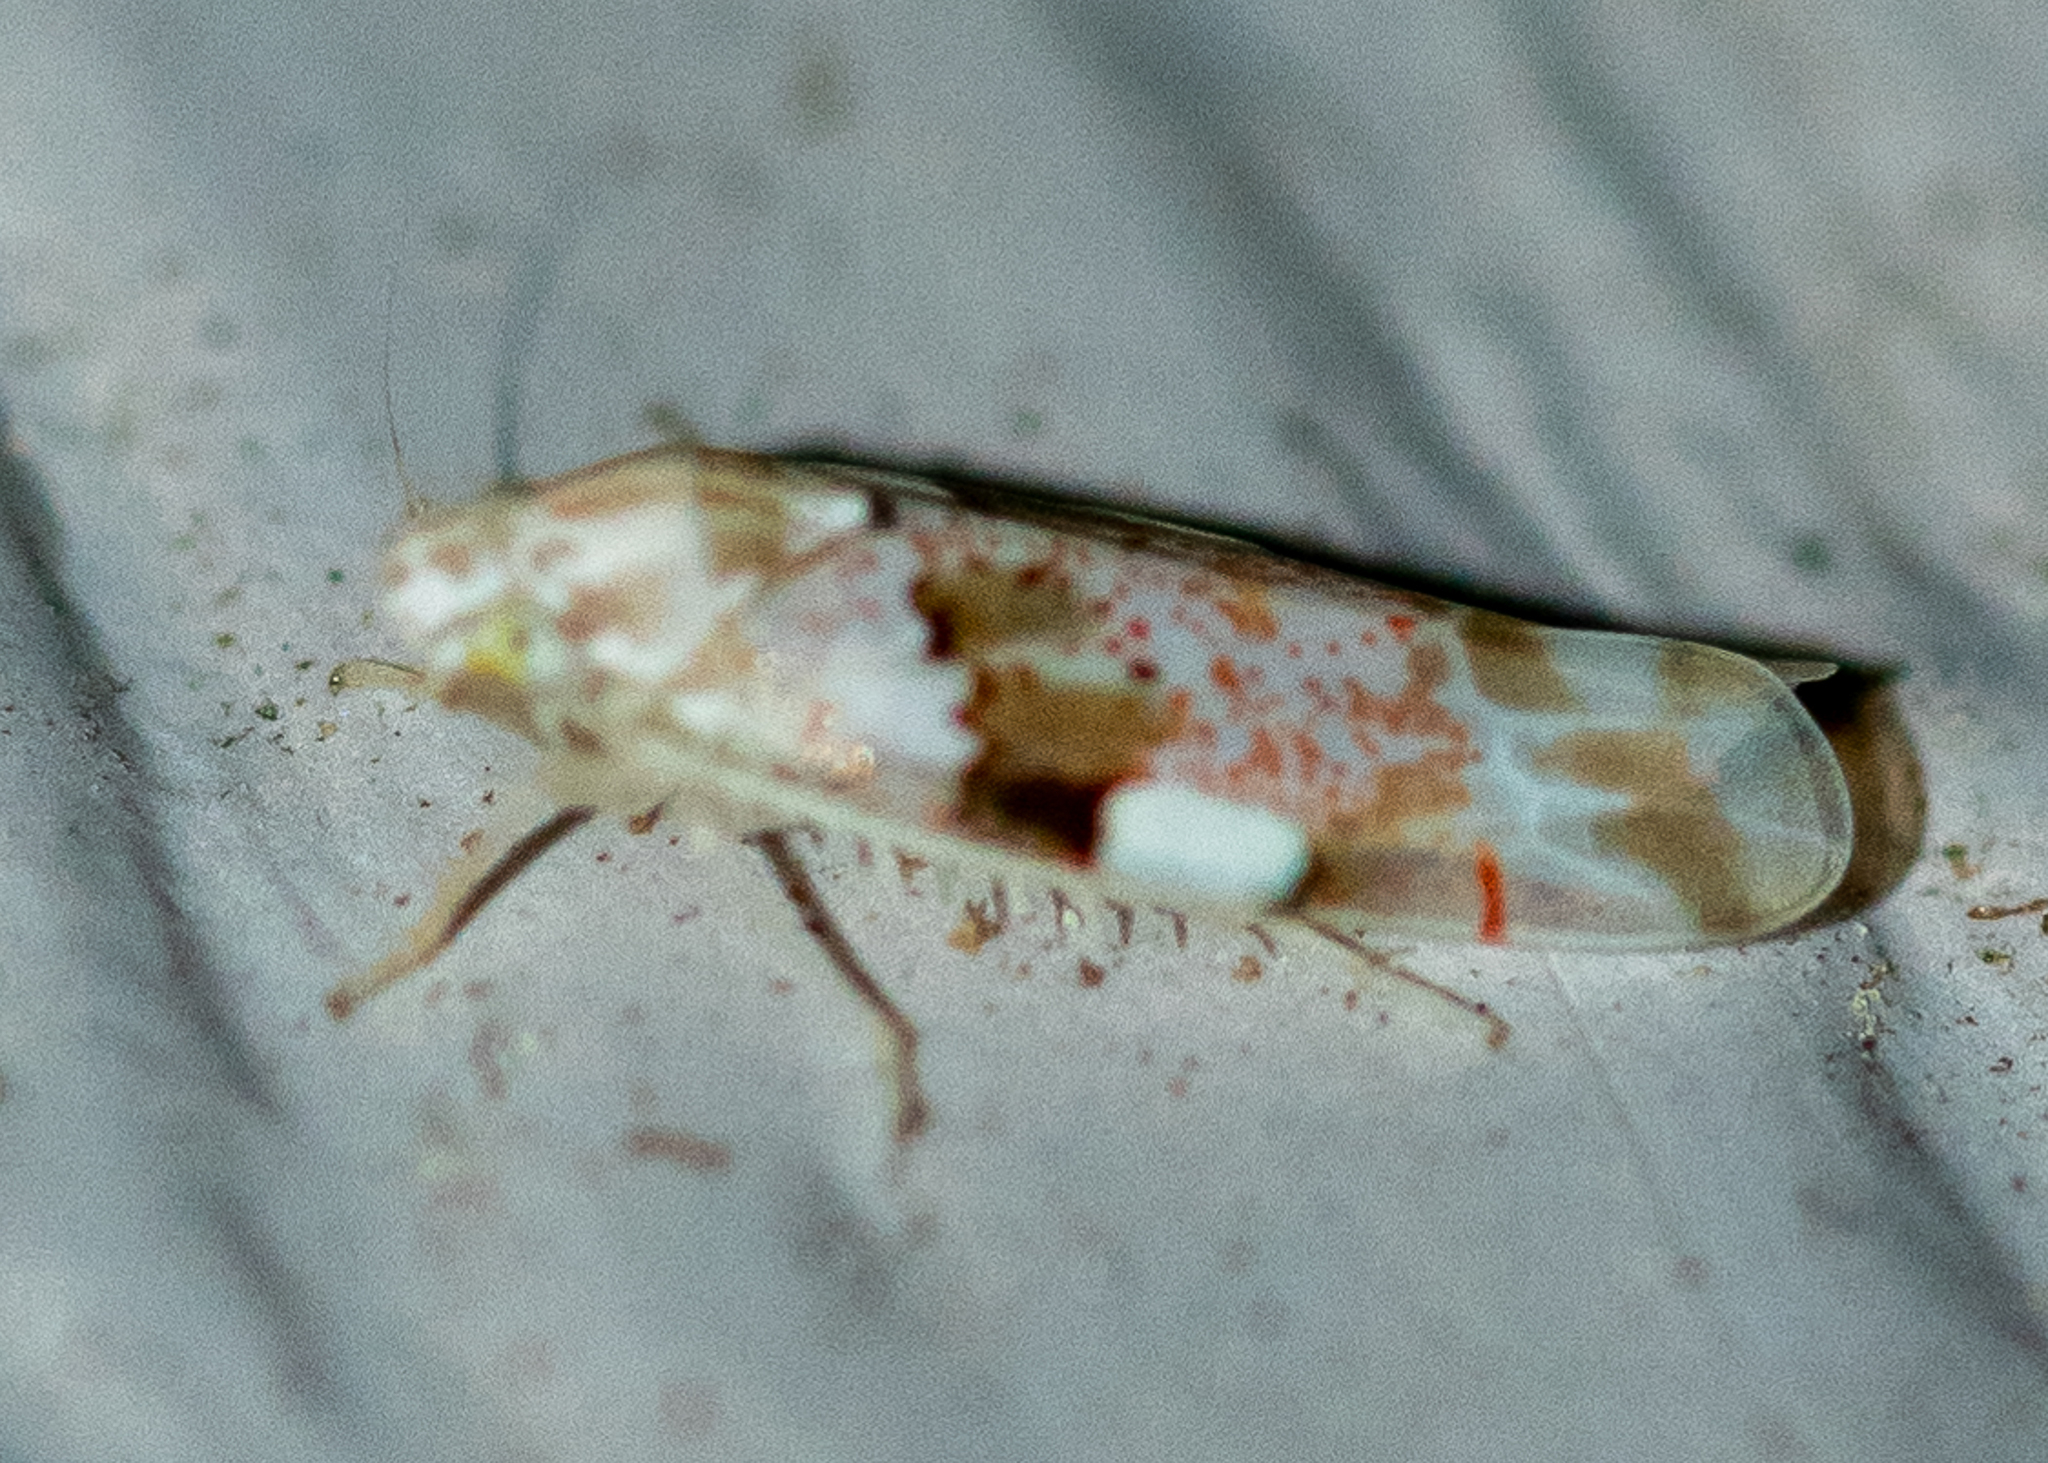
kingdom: Animalia
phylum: Arthropoda
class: Insecta
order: Hemiptera
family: Cicadellidae
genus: Hymetta
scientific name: Hymetta balteata
